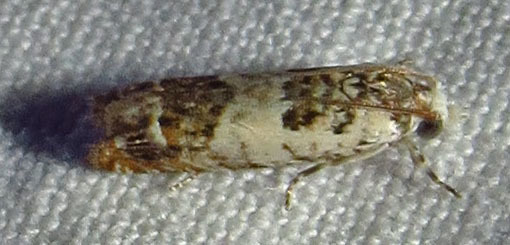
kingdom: Animalia
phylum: Arthropoda
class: Insecta
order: Lepidoptera
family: Tortricidae
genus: Eucosma
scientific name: Eucosma ornatula
